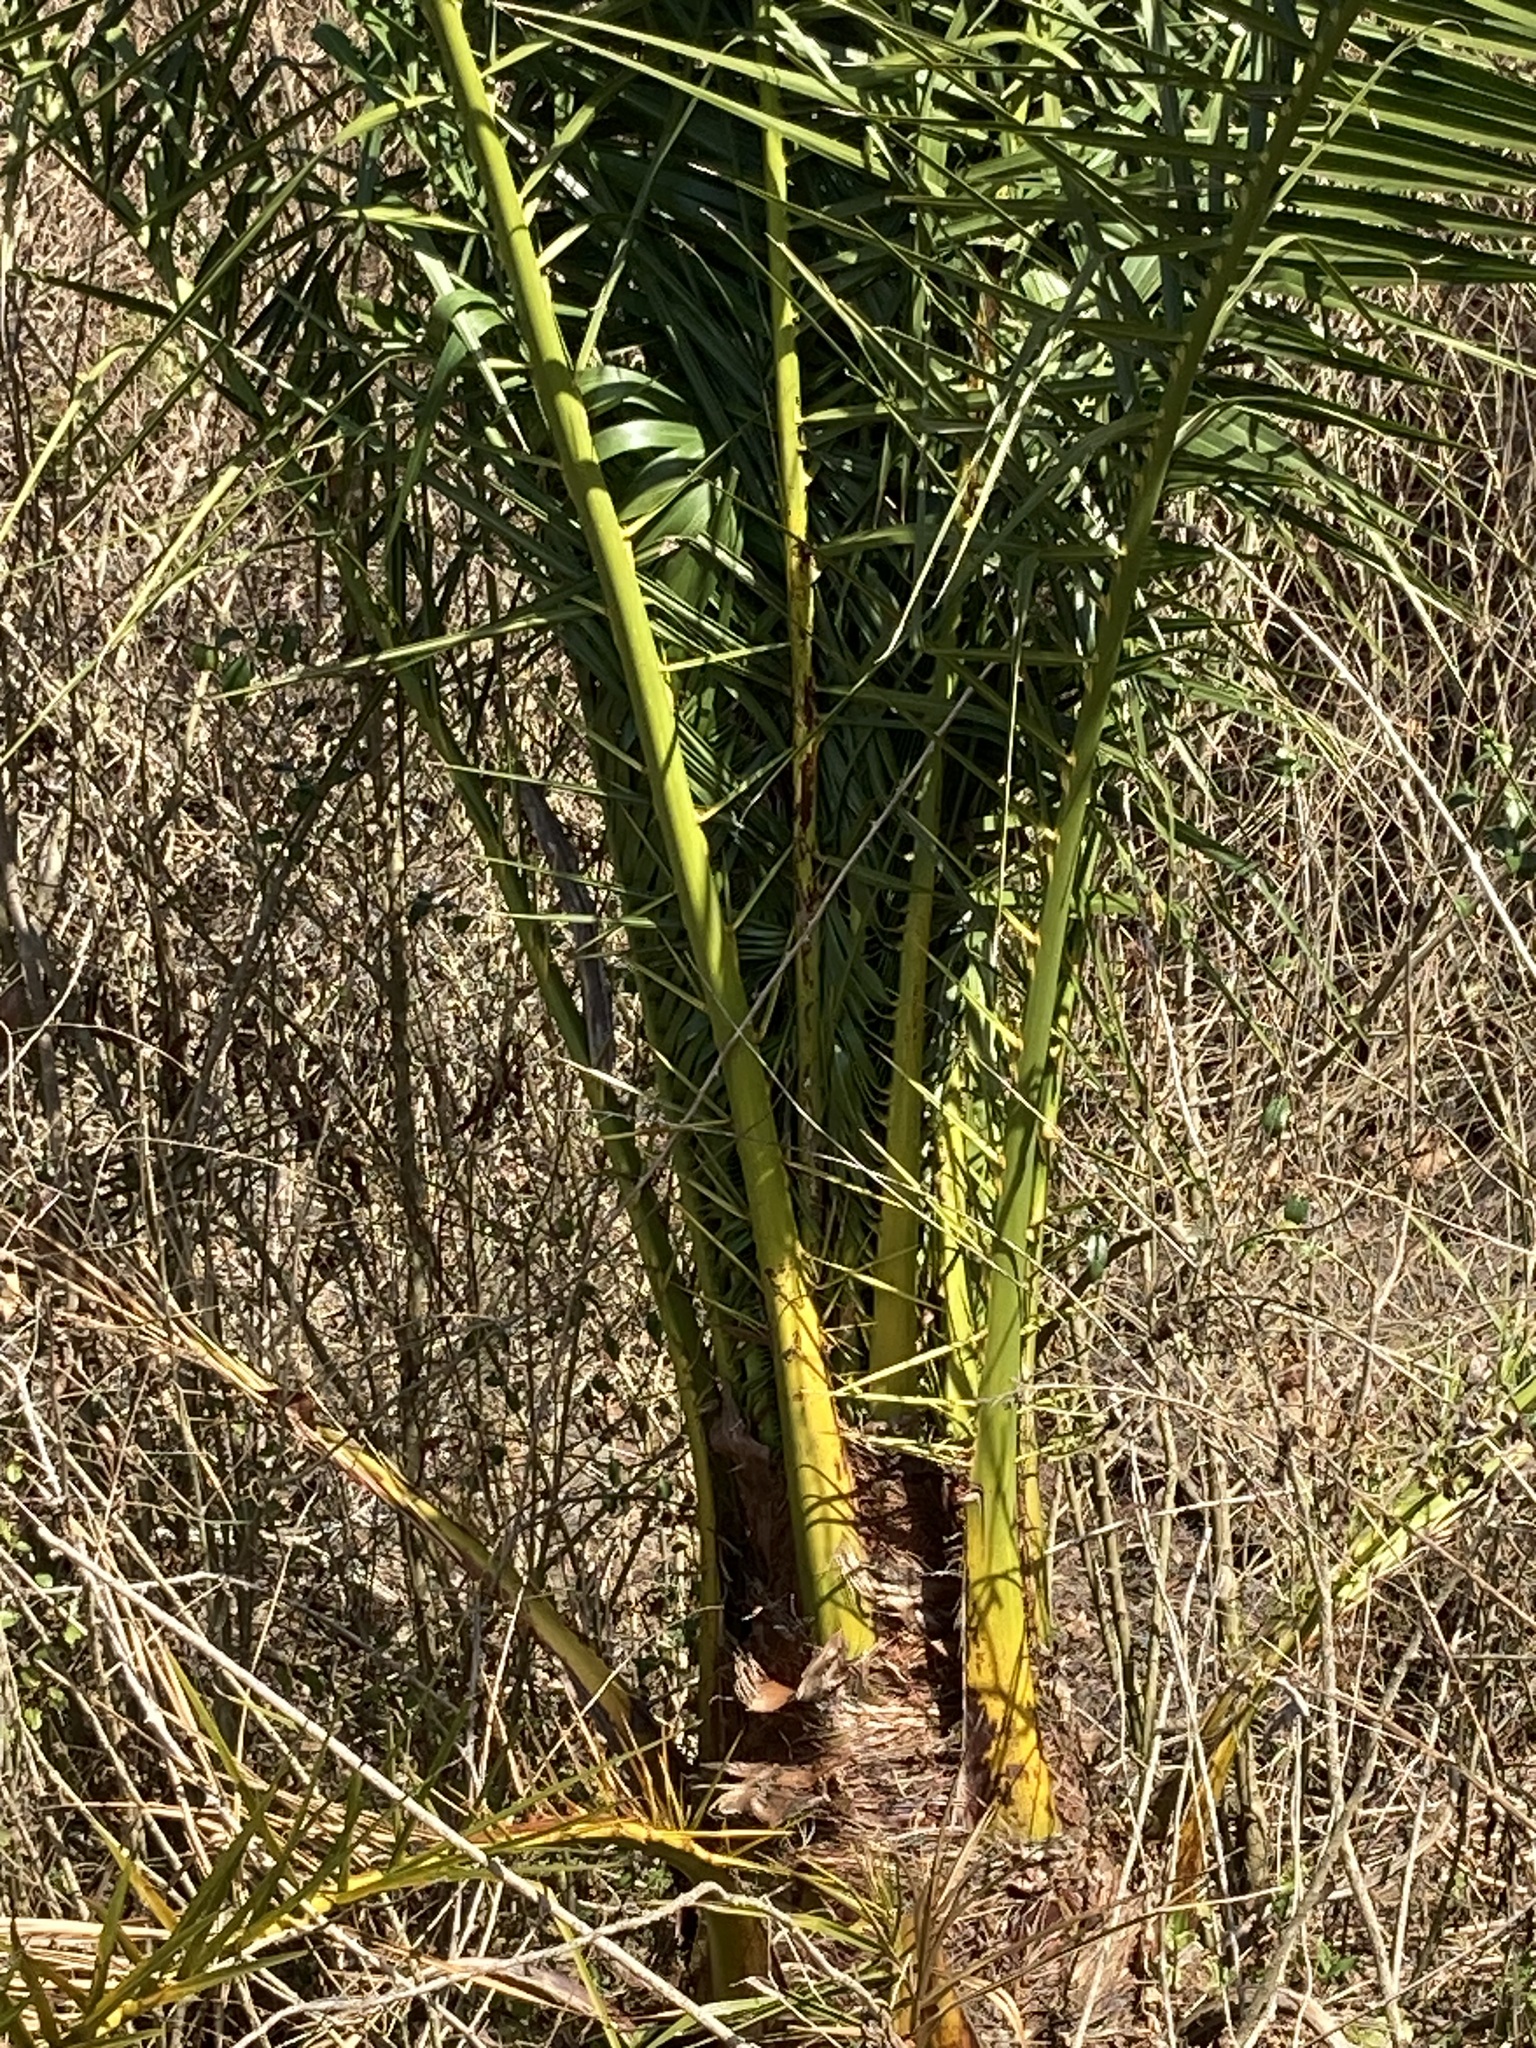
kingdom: Plantae
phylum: Tracheophyta
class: Liliopsida
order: Arecales
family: Arecaceae
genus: Phoenix
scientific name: Phoenix canariensis
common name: Canary island date palm
